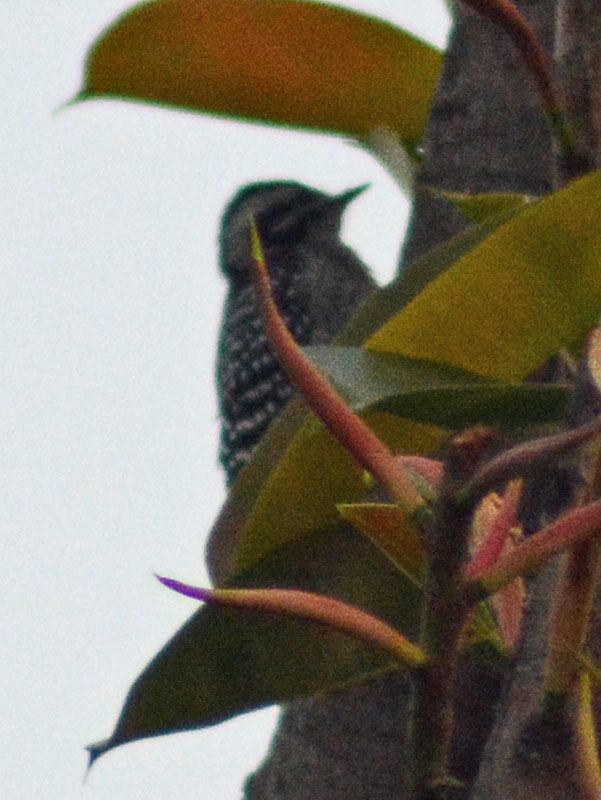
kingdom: Animalia
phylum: Chordata
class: Aves
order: Piciformes
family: Picidae
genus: Dryobates
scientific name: Dryobates scalaris
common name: Ladder-backed woodpecker
